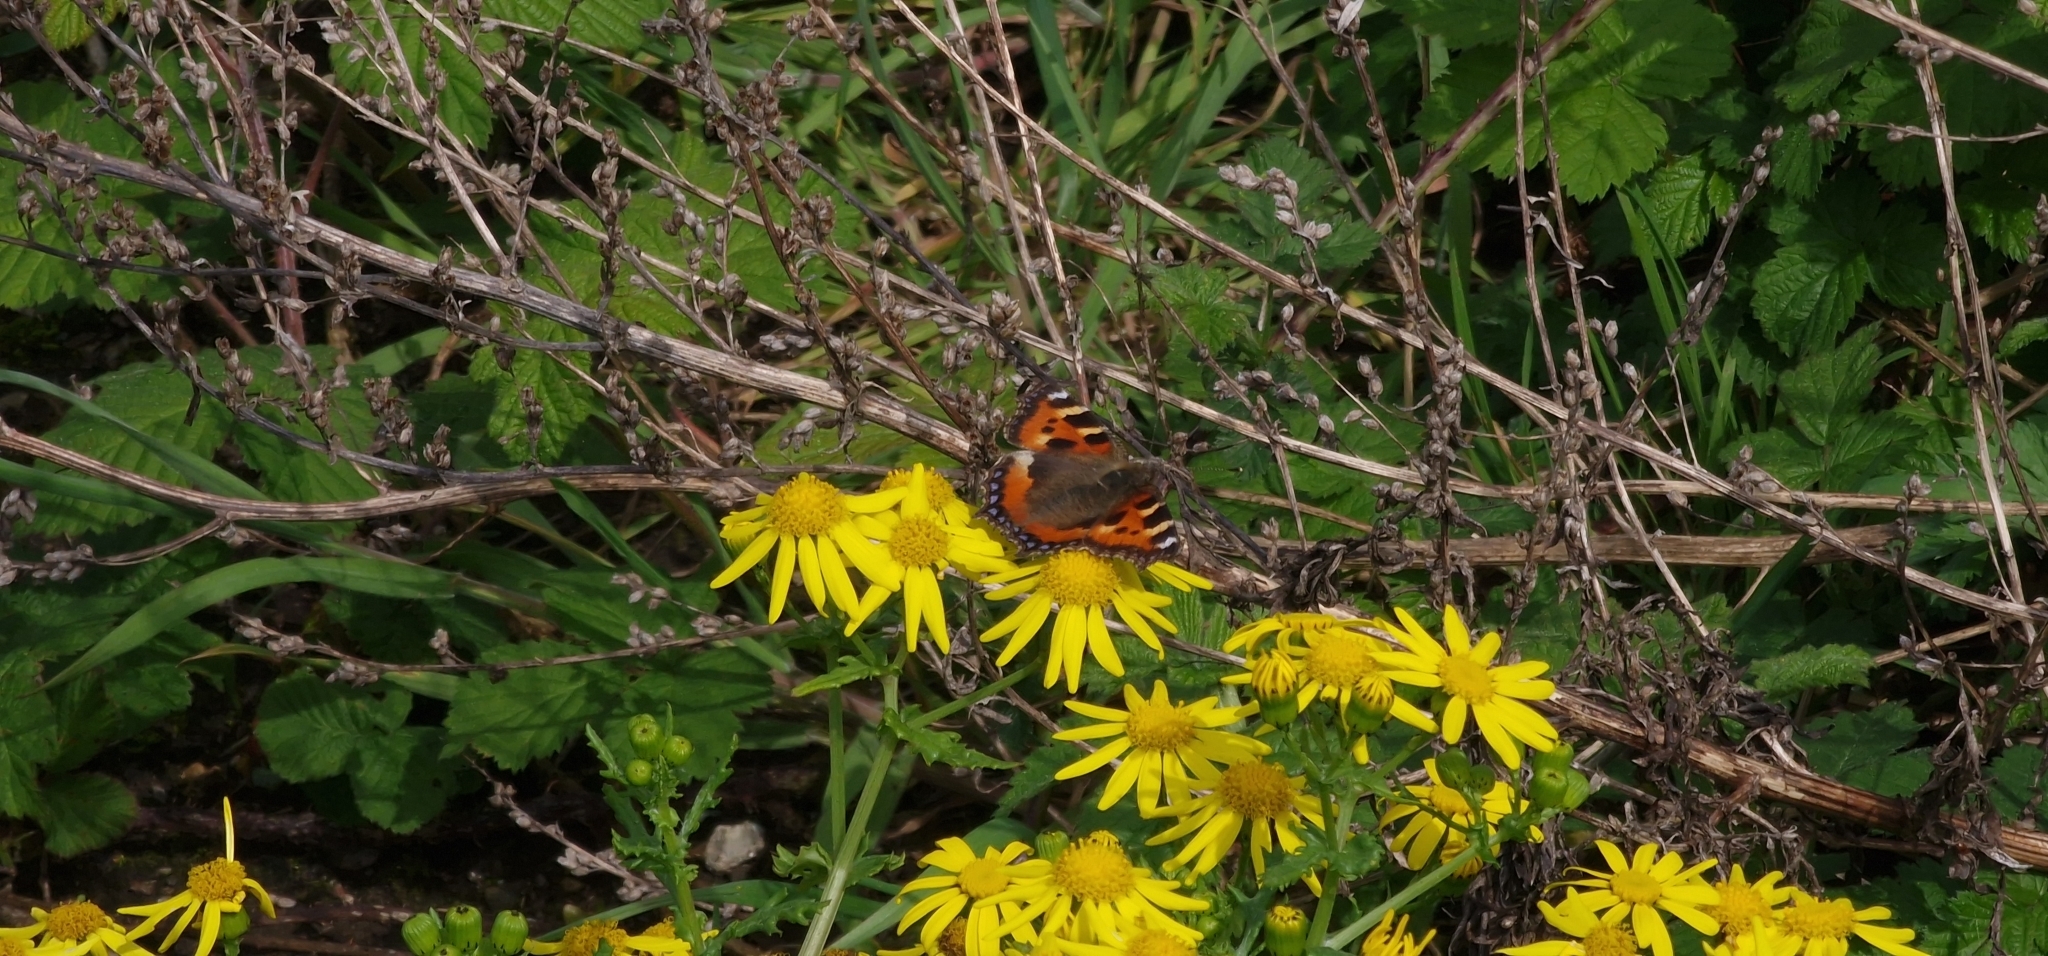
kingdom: Animalia
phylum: Arthropoda
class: Insecta
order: Lepidoptera
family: Nymphalidae
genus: Aglais
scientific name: Aglais urticae
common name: Small tortoiseshell
